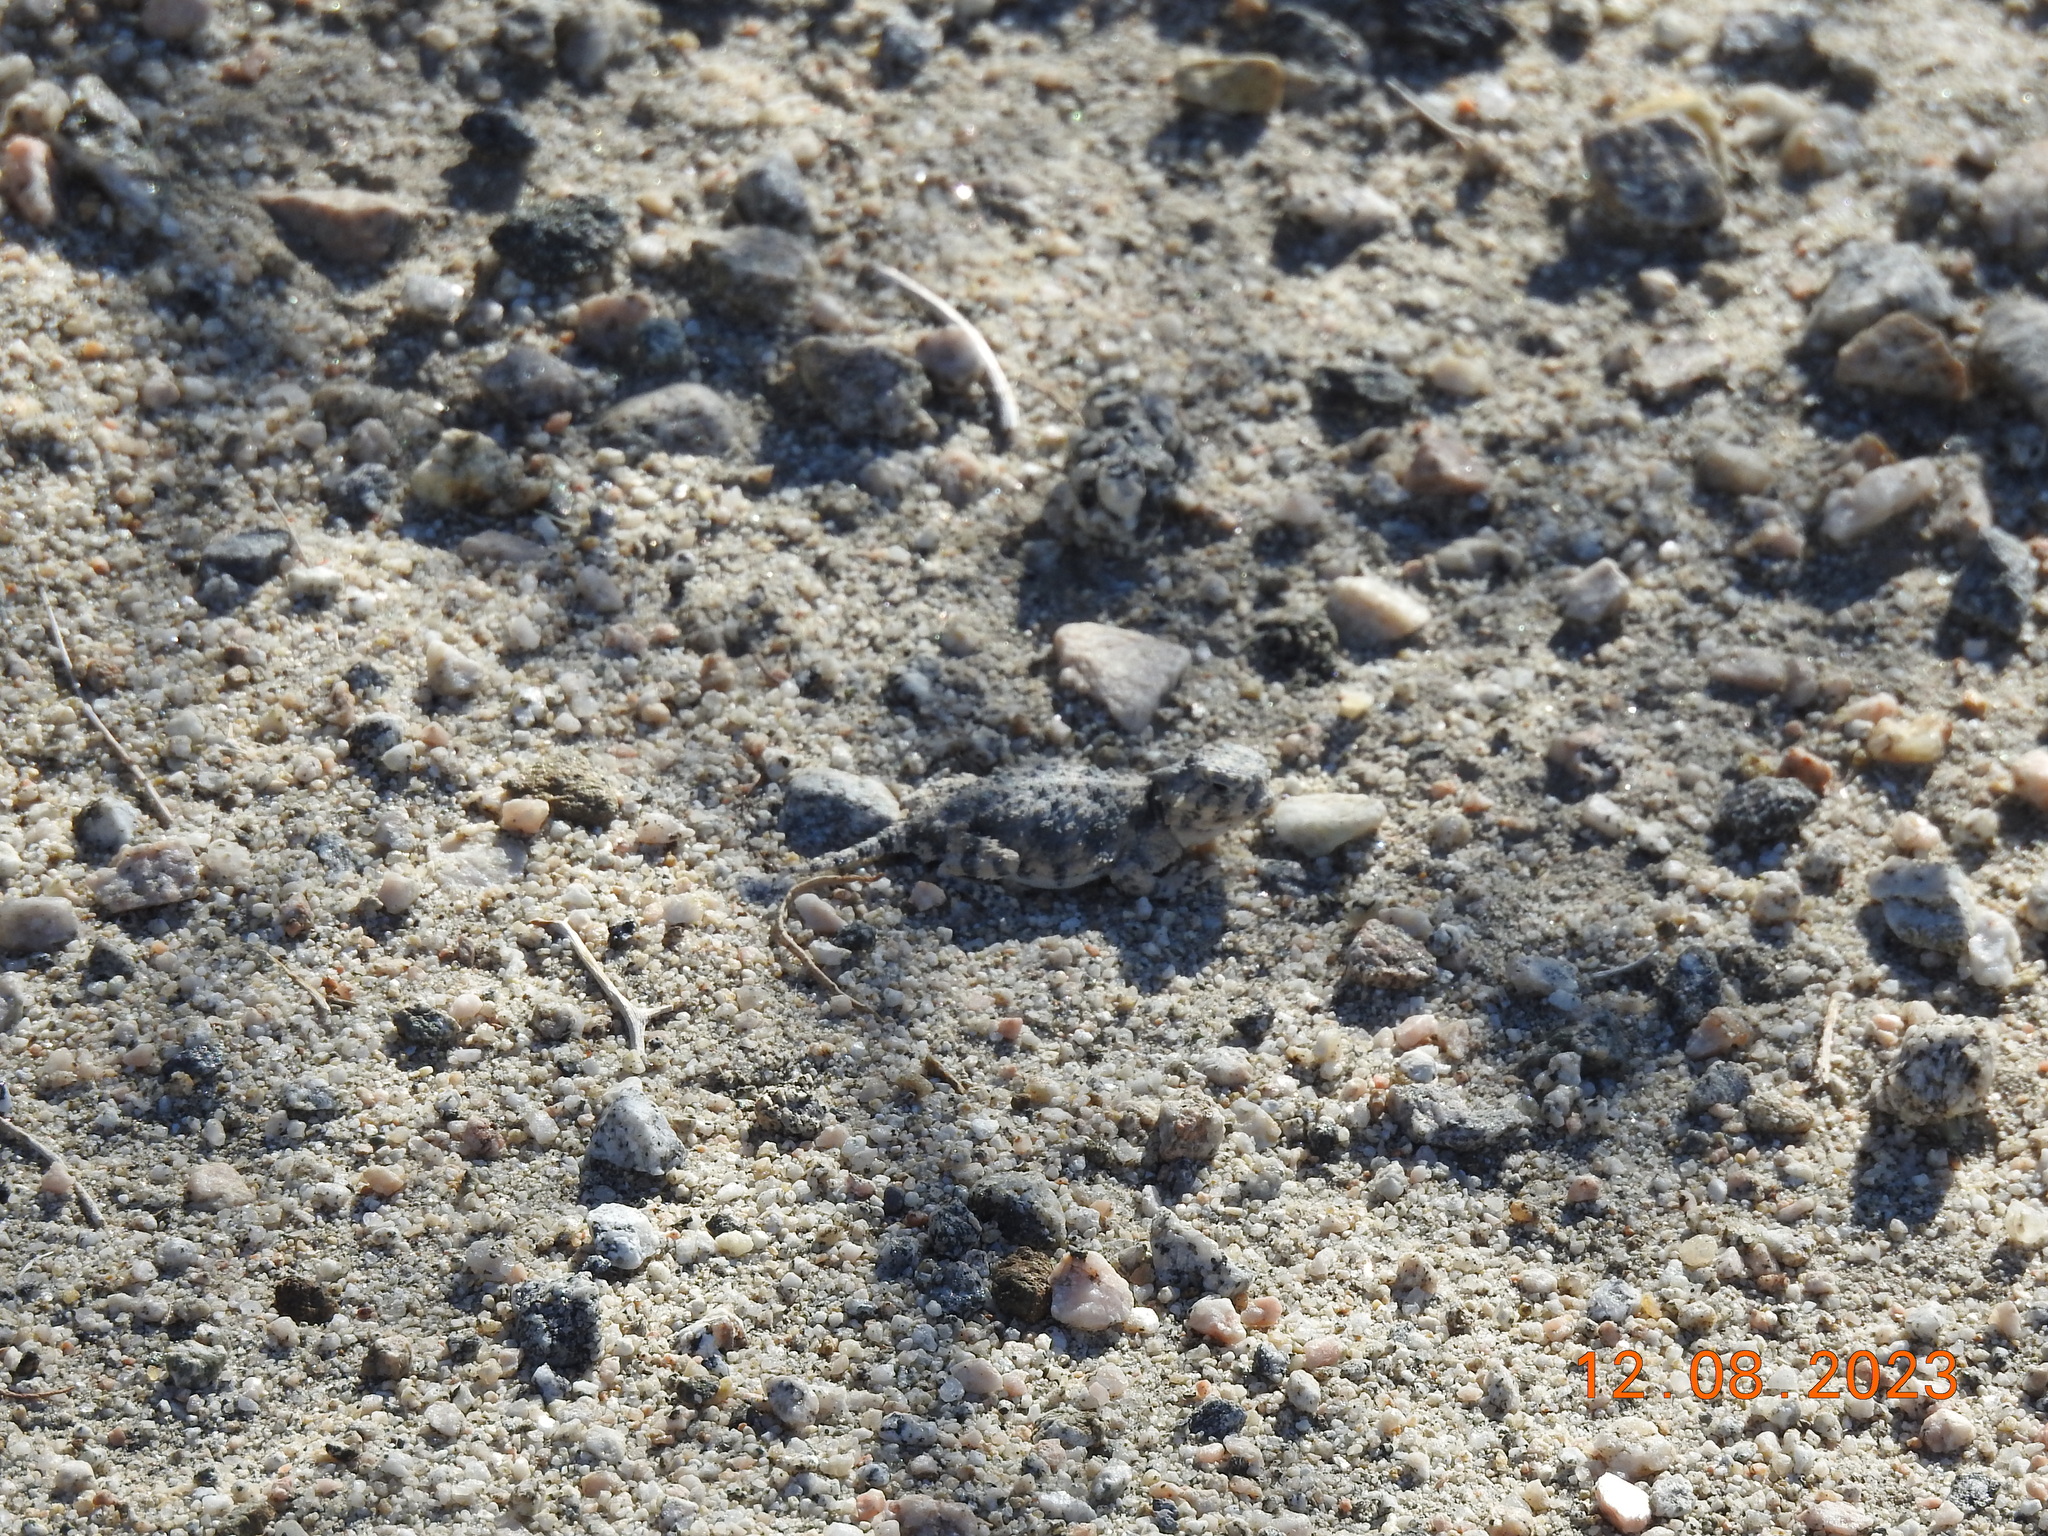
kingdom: Animalia
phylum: Chordata
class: Squamata
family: Phrynosomatidae
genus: Phrynosoma
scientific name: Phrynosoma platyrhinos
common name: Desert horned lizard
